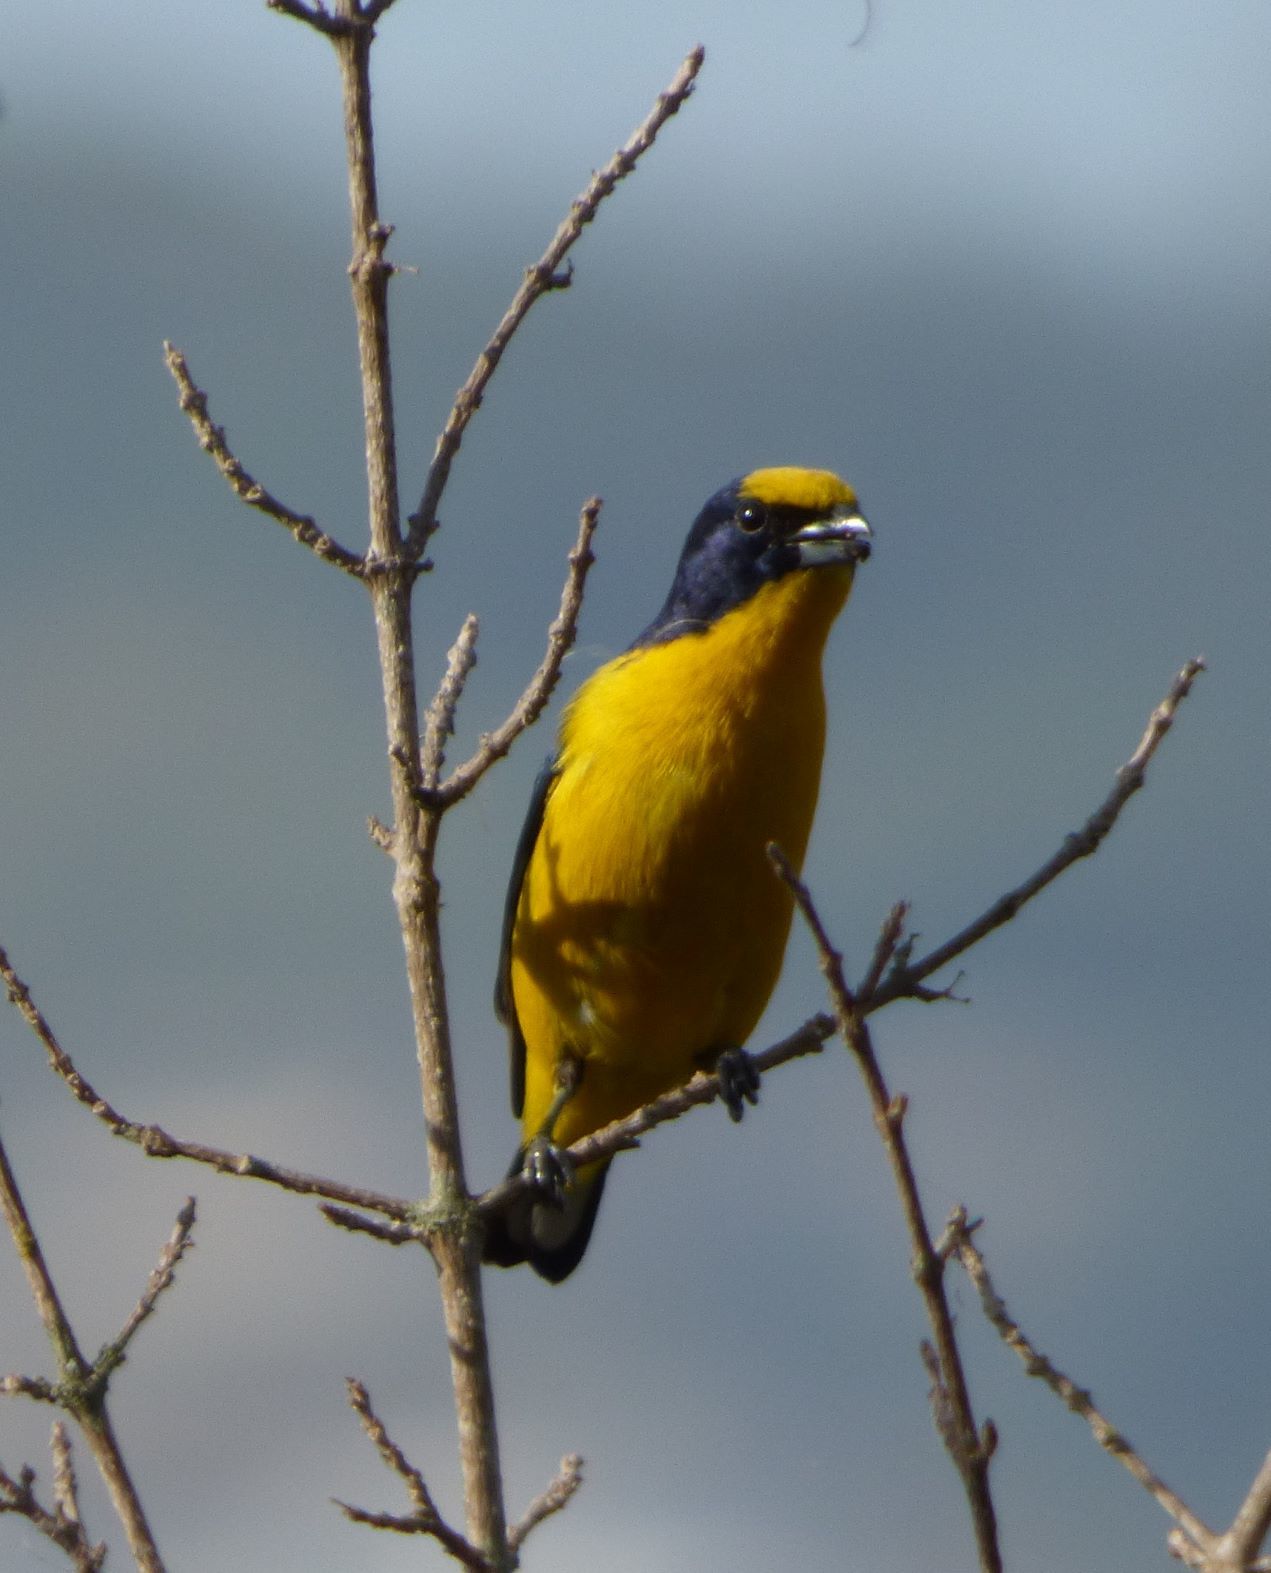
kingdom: Animalia
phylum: Chordata
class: Aves
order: Passeriformes
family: Fringillidae
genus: Euphonia
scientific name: Euphonia laniirostris
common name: Thick-billed euphonia
